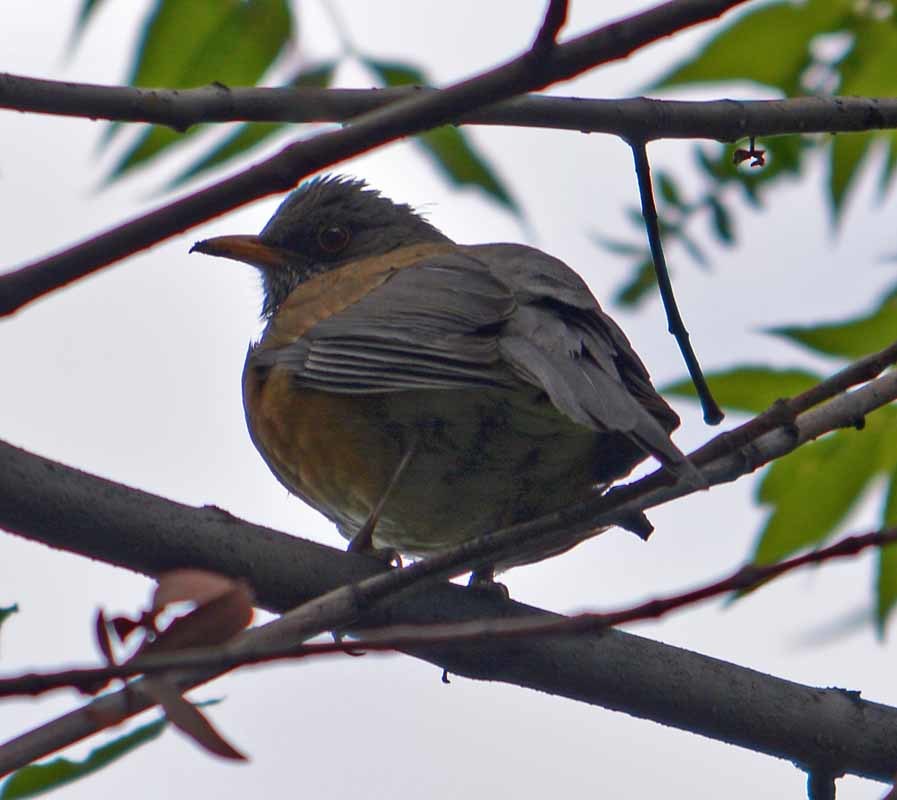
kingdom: Animalia
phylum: Chordata
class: Aves
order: Passeriformes
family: Turdidae
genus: Turdus
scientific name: Turdus rufopalliatus
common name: Rufous-backed robin
